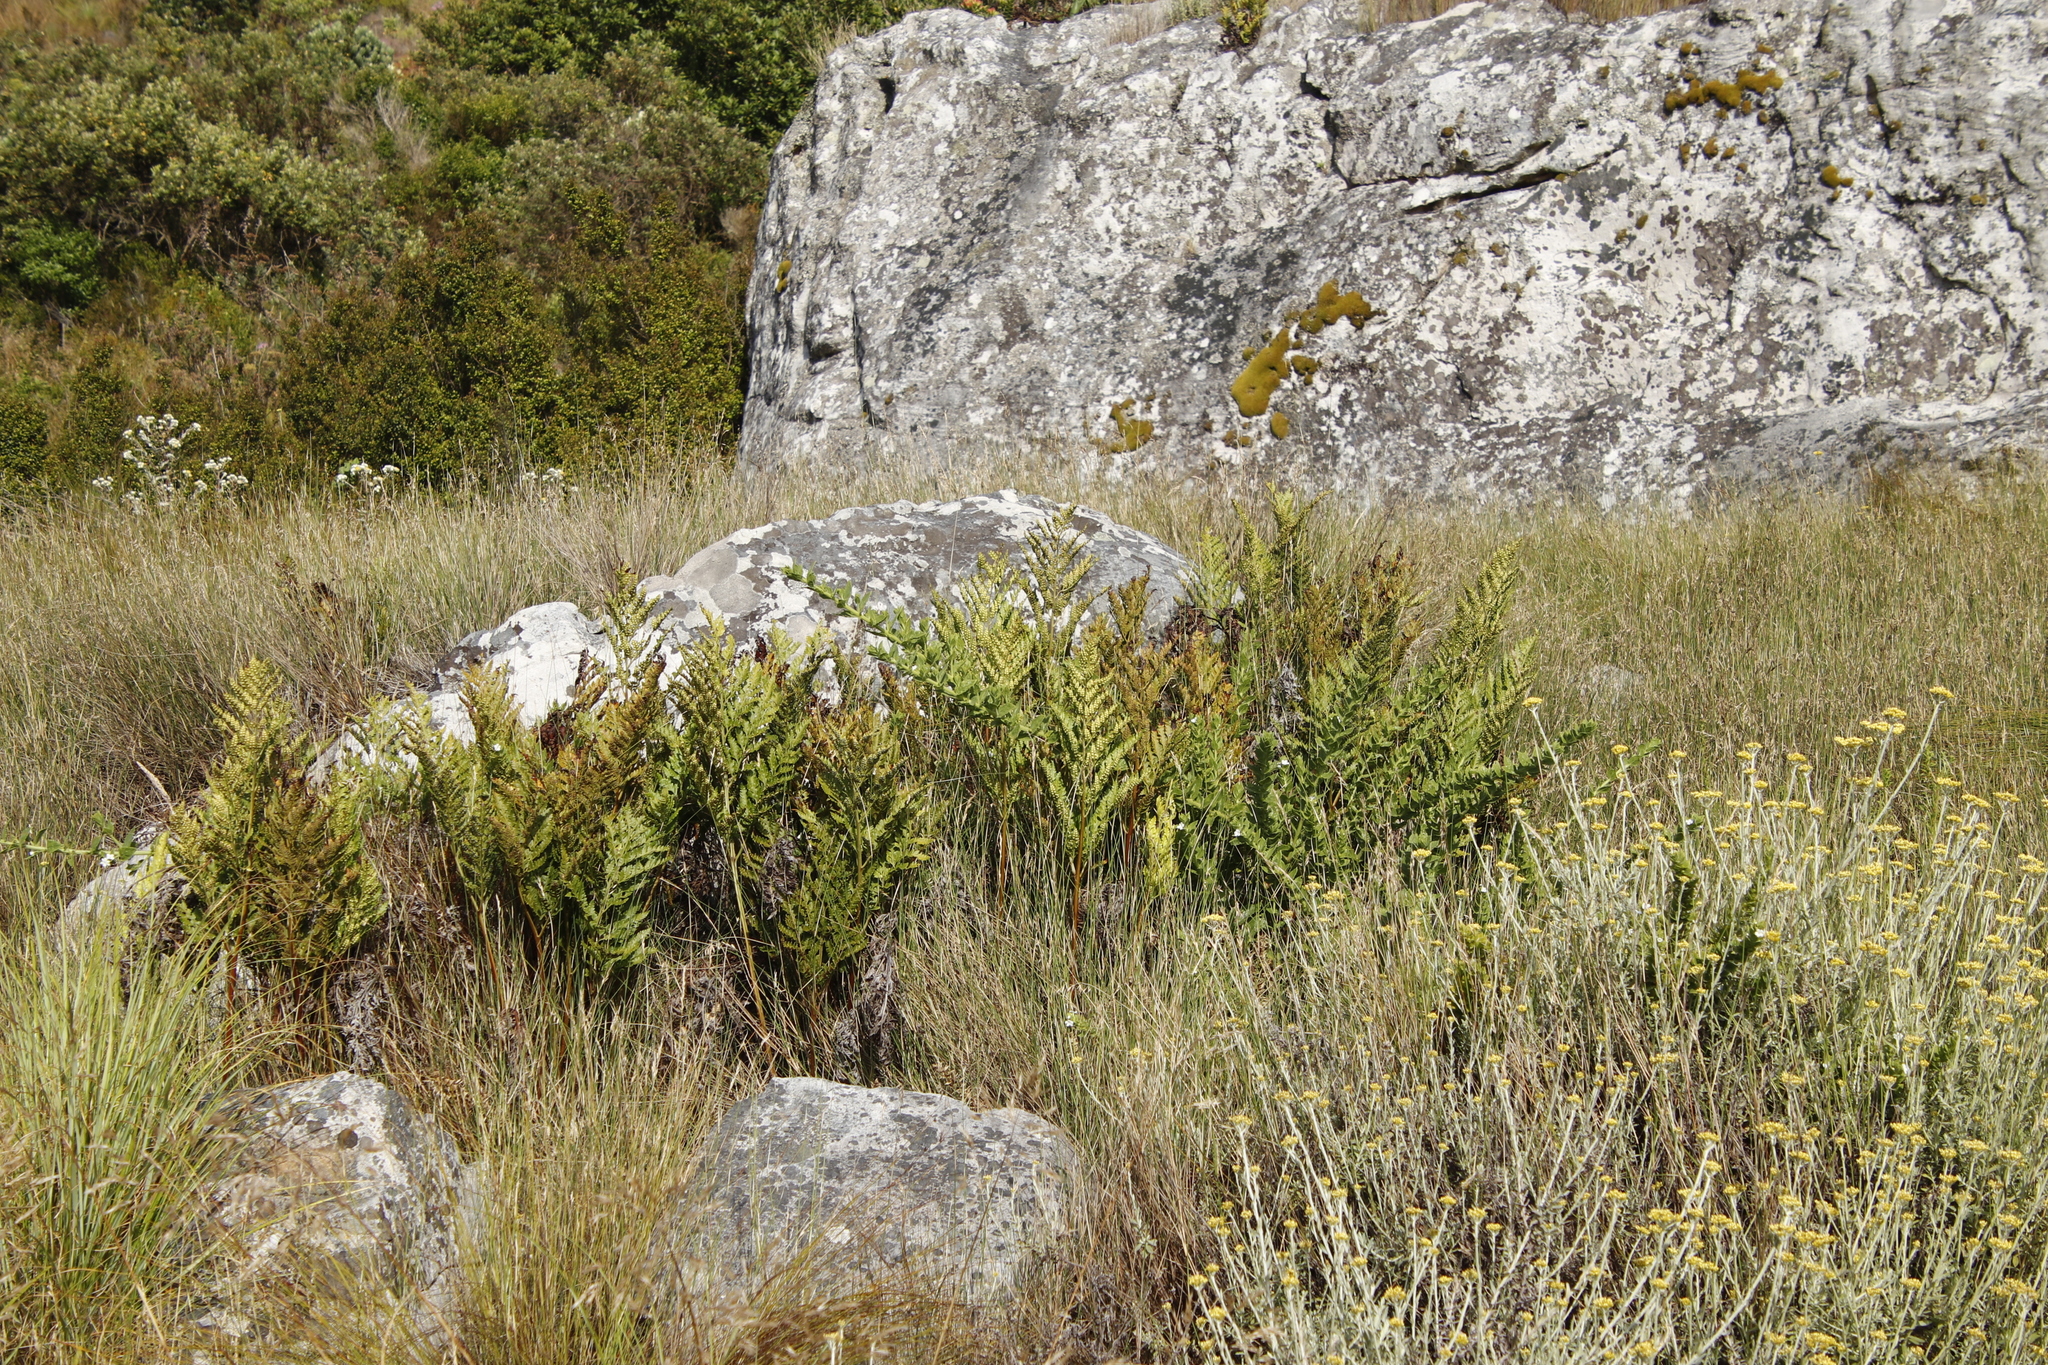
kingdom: Plantae
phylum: Tracheophyta
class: Polypodiopsida
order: Osmundales
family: Osmundaceae
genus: Todea
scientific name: Todea barbara
